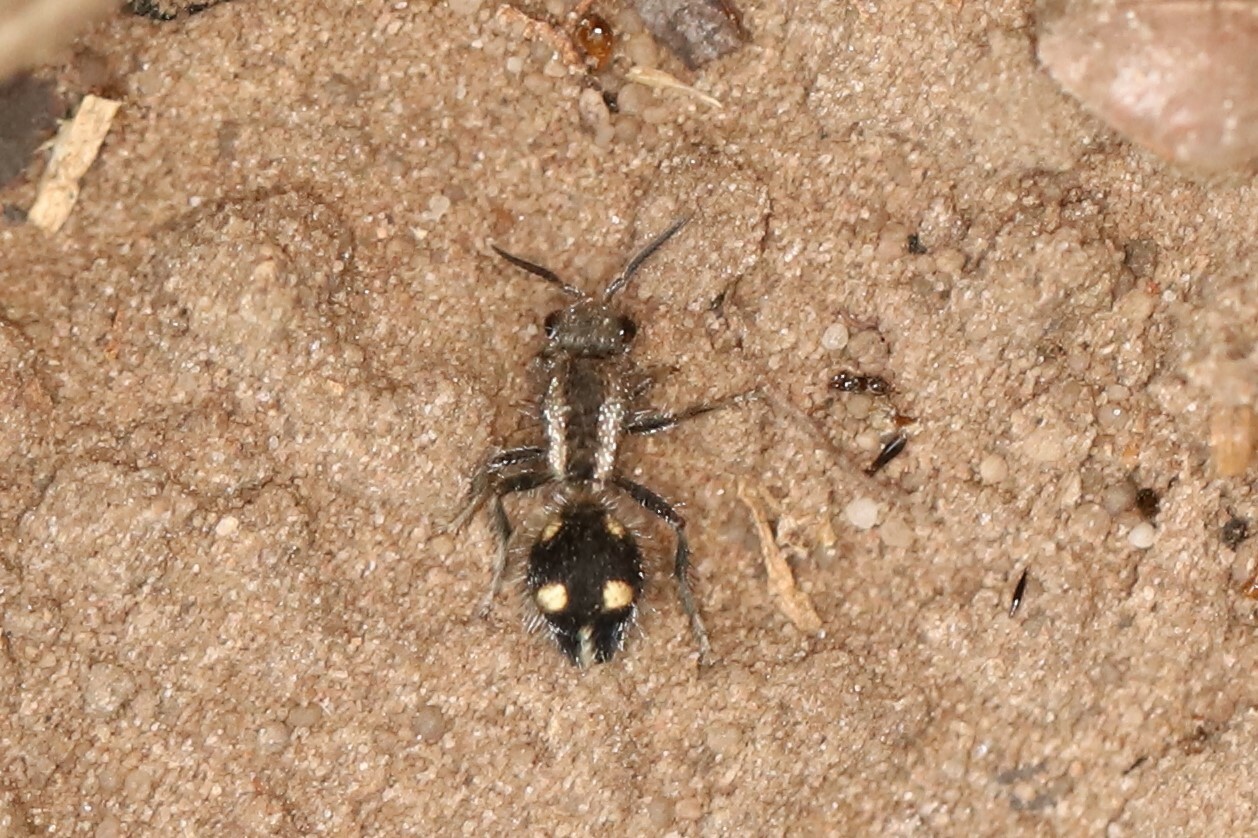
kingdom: Animalia
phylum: Arthropoda
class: Insecta
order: Hymenoptera
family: Mutillidae
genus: Traumatomutilla
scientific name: Traumatomutilla ocellaris
